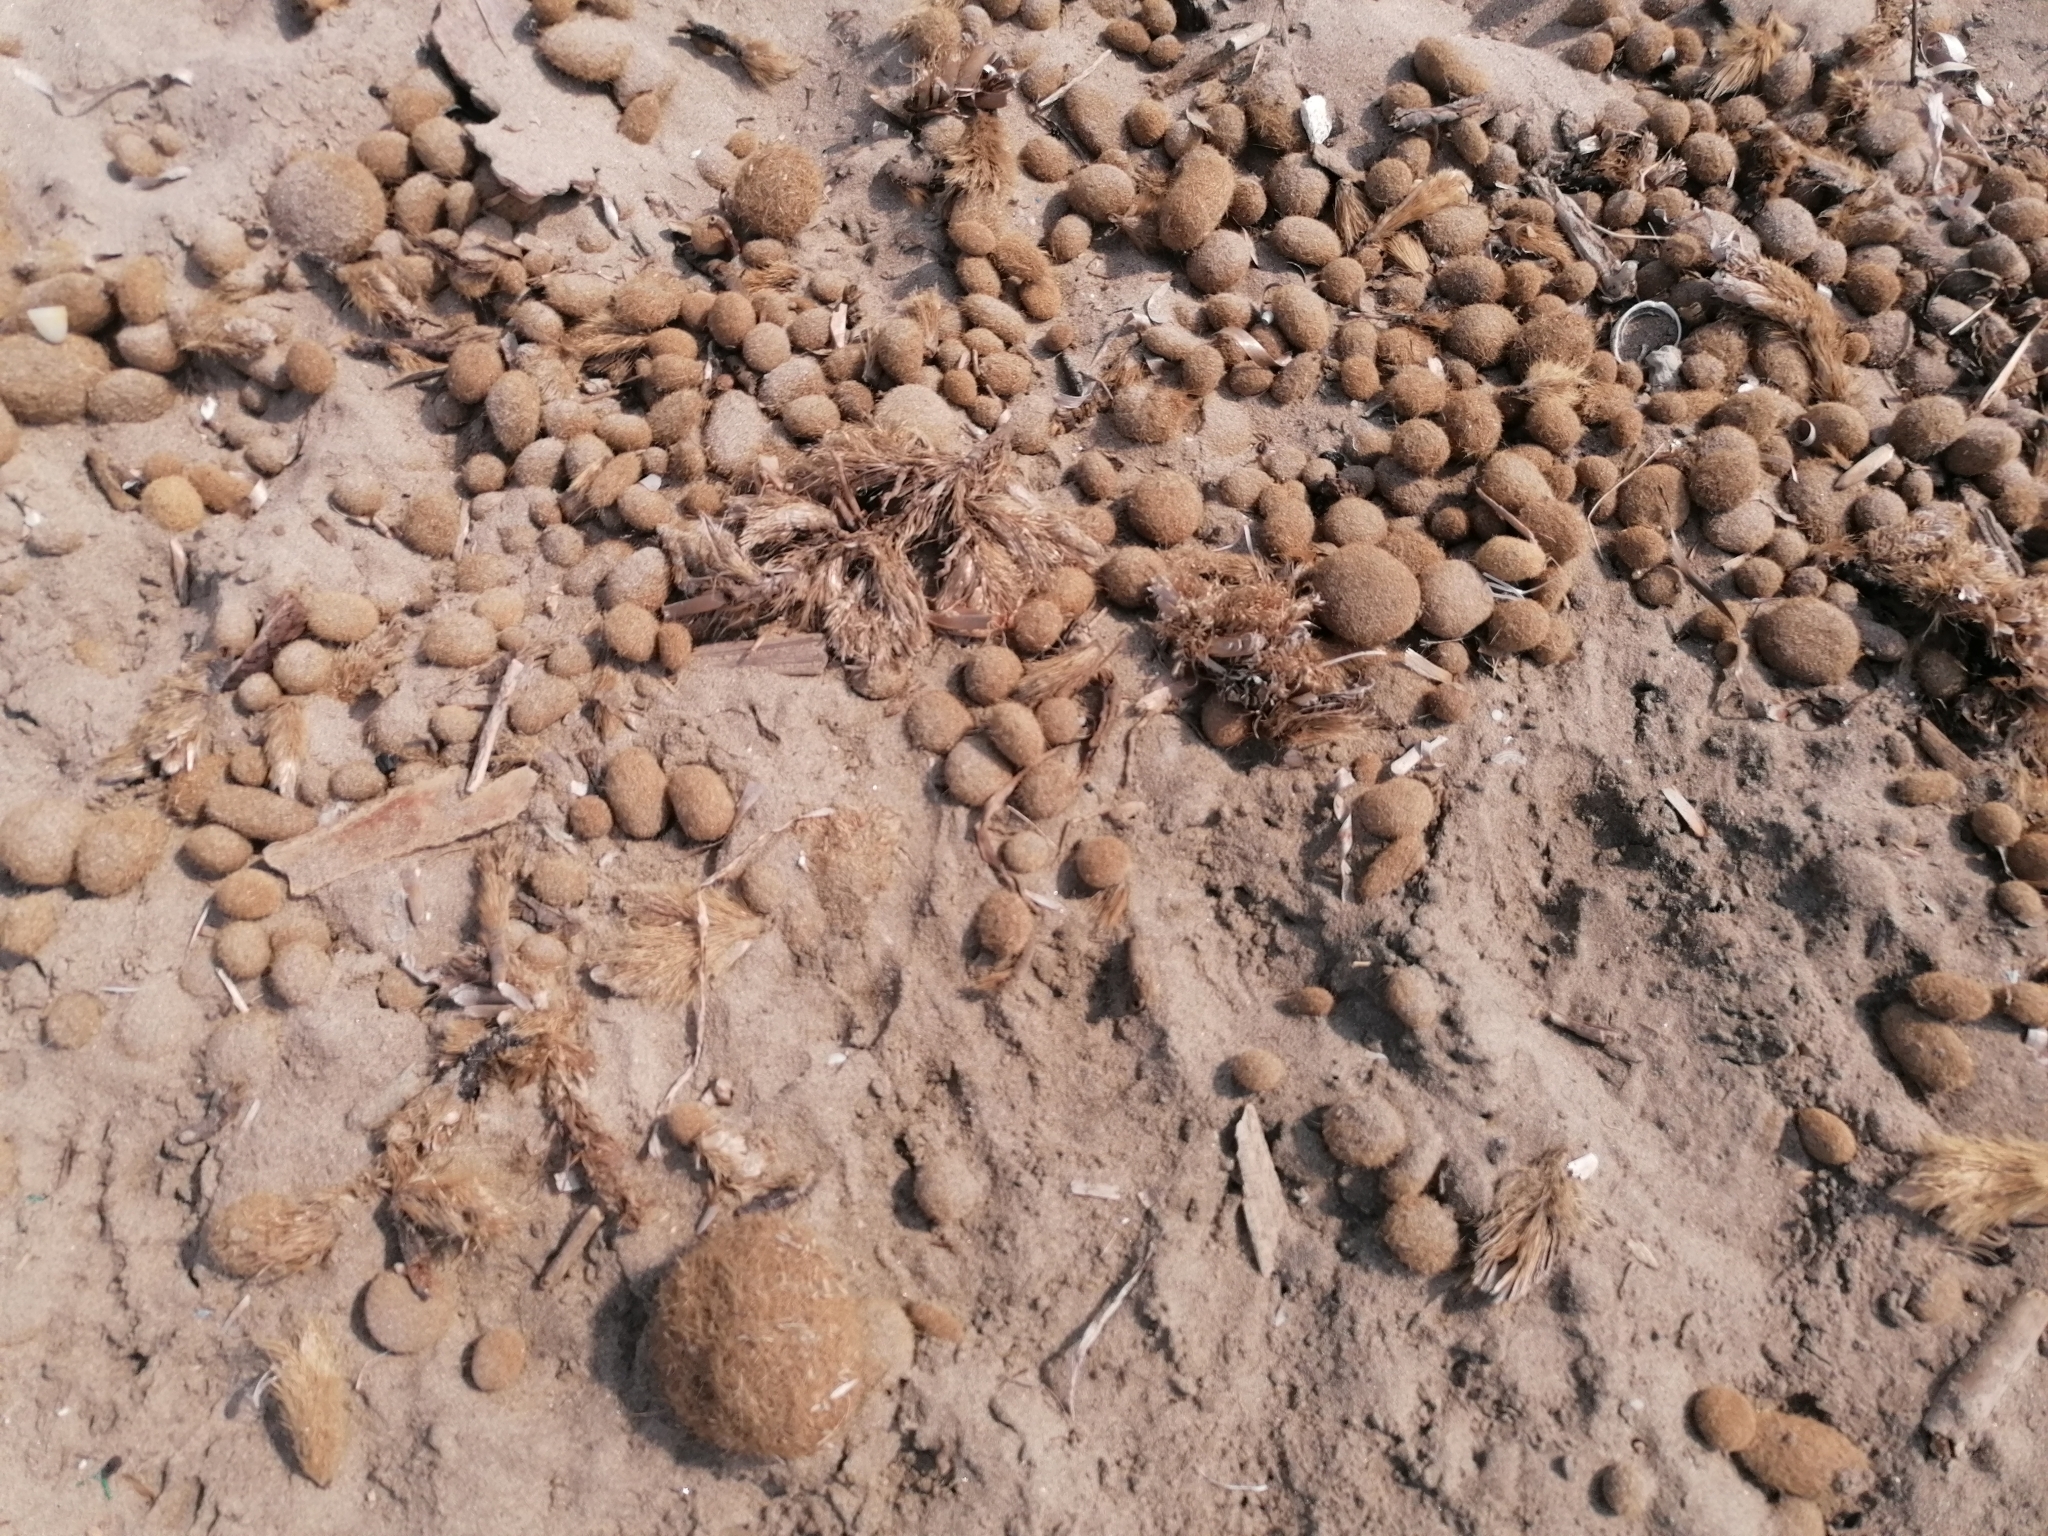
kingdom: Plantae
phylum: Tracheophyta
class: Liliopsida
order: Alismatales
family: Posidoniaceae
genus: Posidonia
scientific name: Posidonia oceanica
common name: Mediterranean tapeweed
